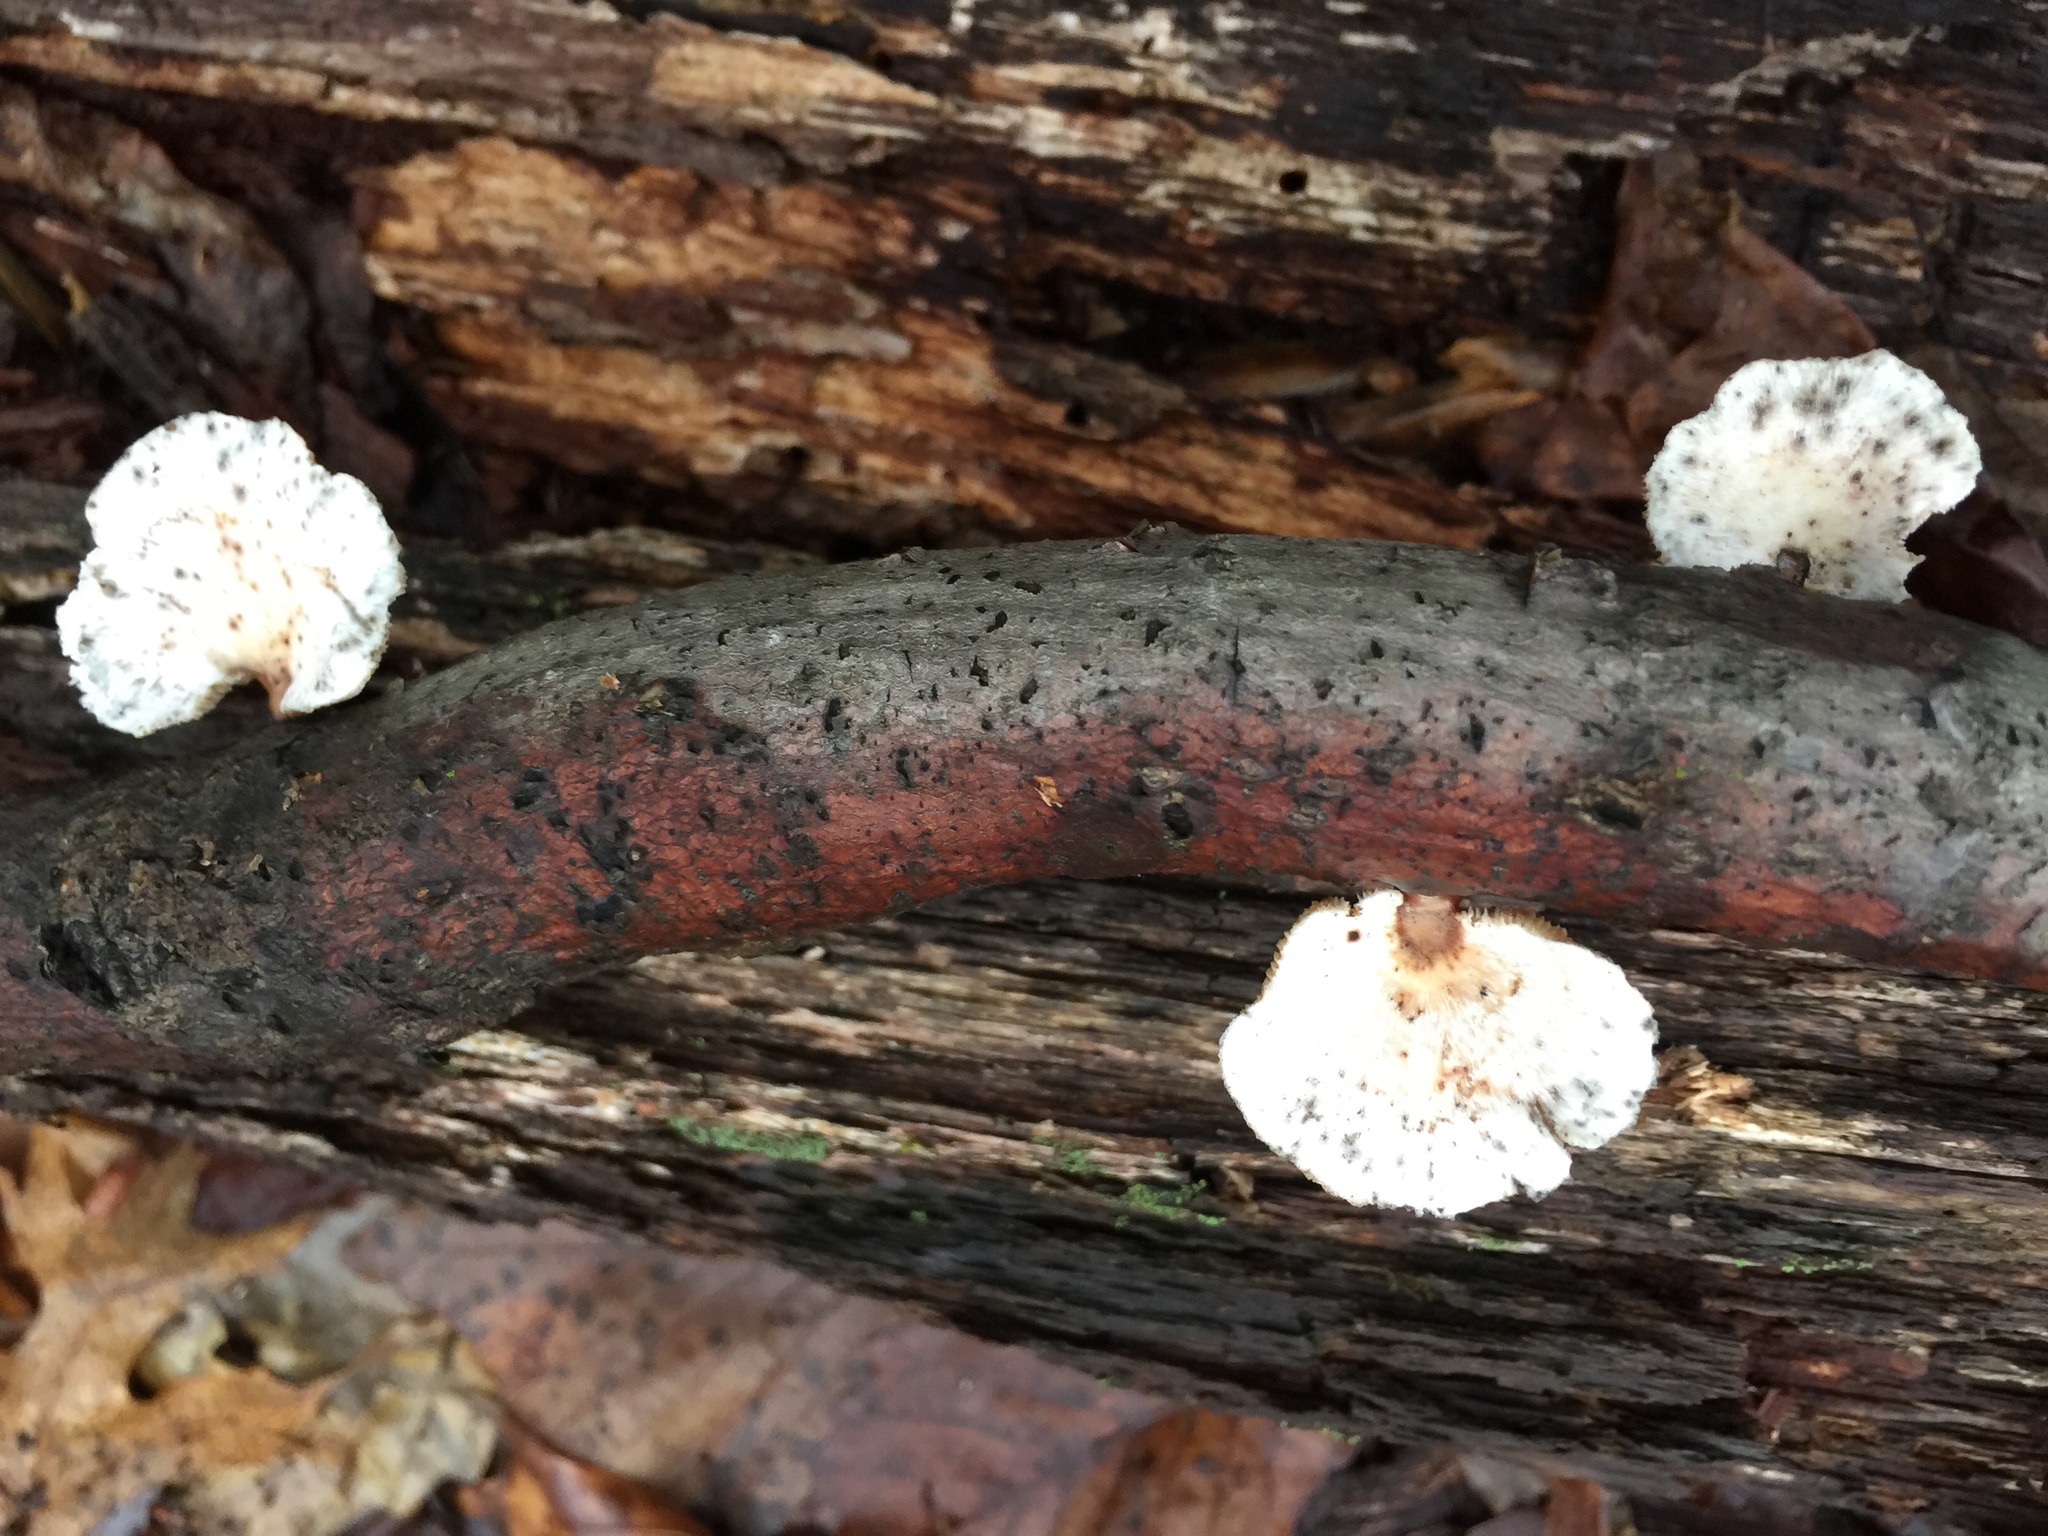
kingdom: Fungi
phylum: Basidiomycota
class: Agaricomycetes
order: Polyporales
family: Polyporaceae
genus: Neofavolus
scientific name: Neofavolus alveolaris
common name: Hexagonal-pored polypore
